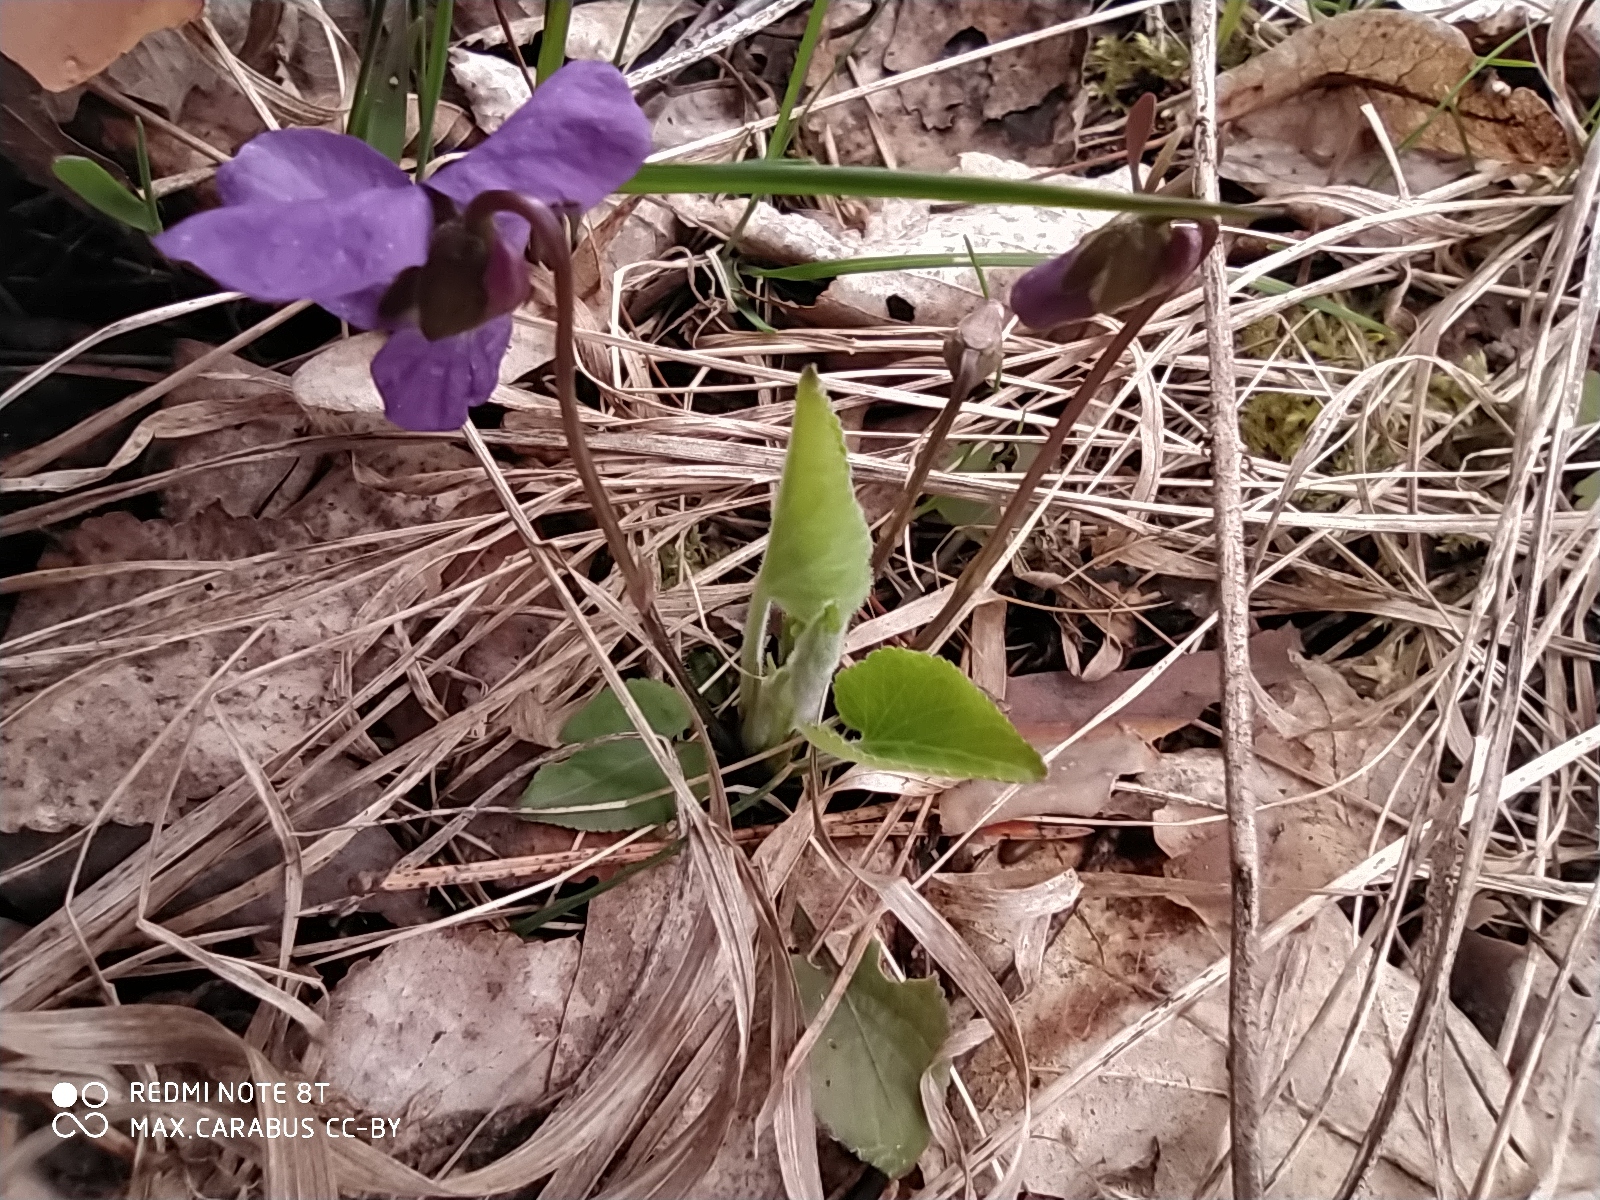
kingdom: Plantae
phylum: Tracheophyta
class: Magnoliopsida
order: Malpighiales
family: Violaceae
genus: Viola
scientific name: Viola hirta
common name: Hairy violet
